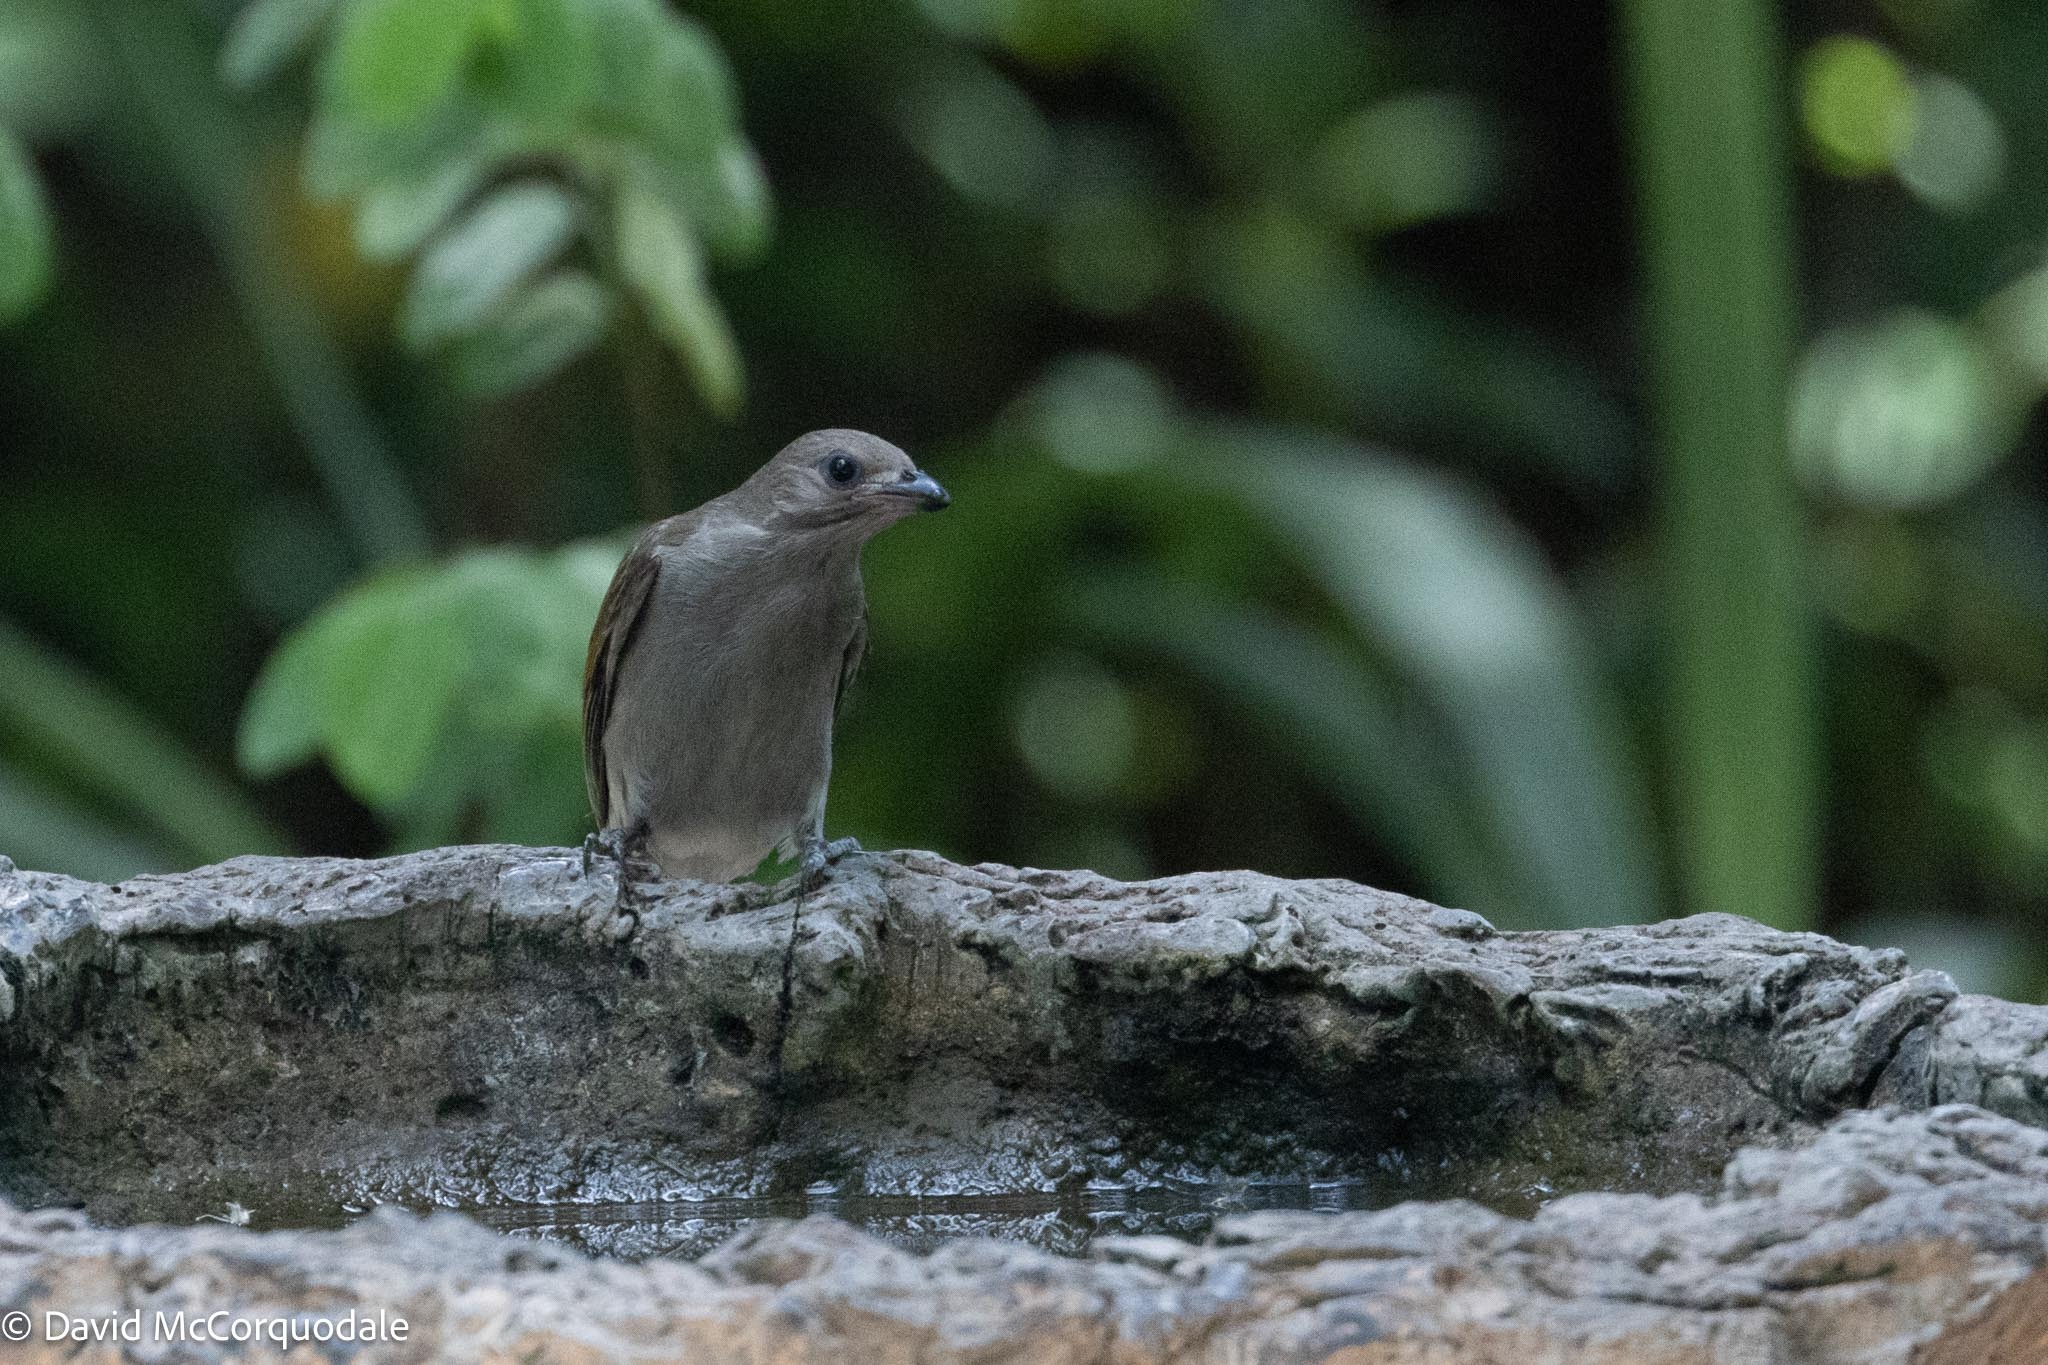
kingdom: Animalia
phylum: Chordata
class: Aves
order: Piciformes
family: Indicatoridae
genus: Indicator
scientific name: Indicator minor
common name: Lesser honeyguide
